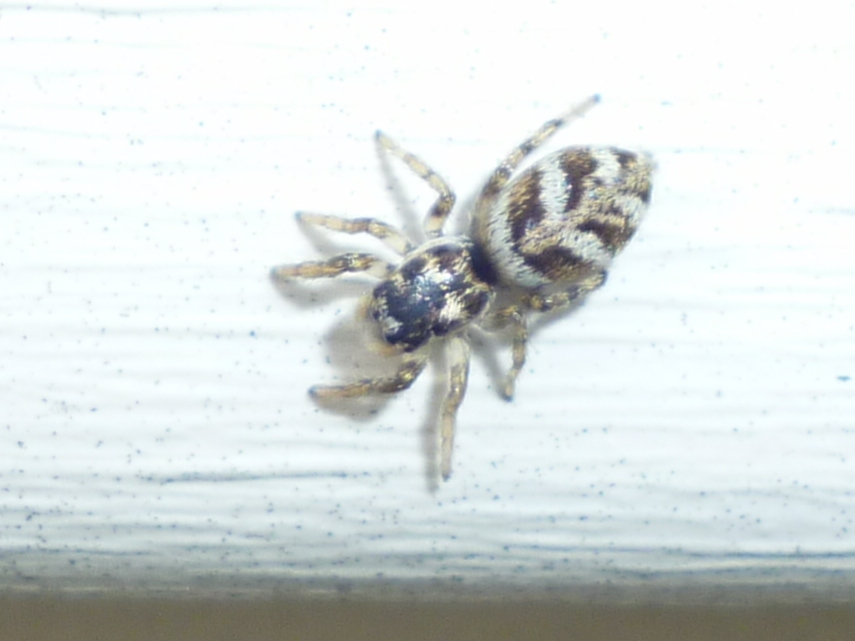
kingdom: Animalia
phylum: Arthropoda
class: Arachnida
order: Araneae
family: Salticidae
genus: Salticus
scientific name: Salticus scenicus
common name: Zebra jumper
